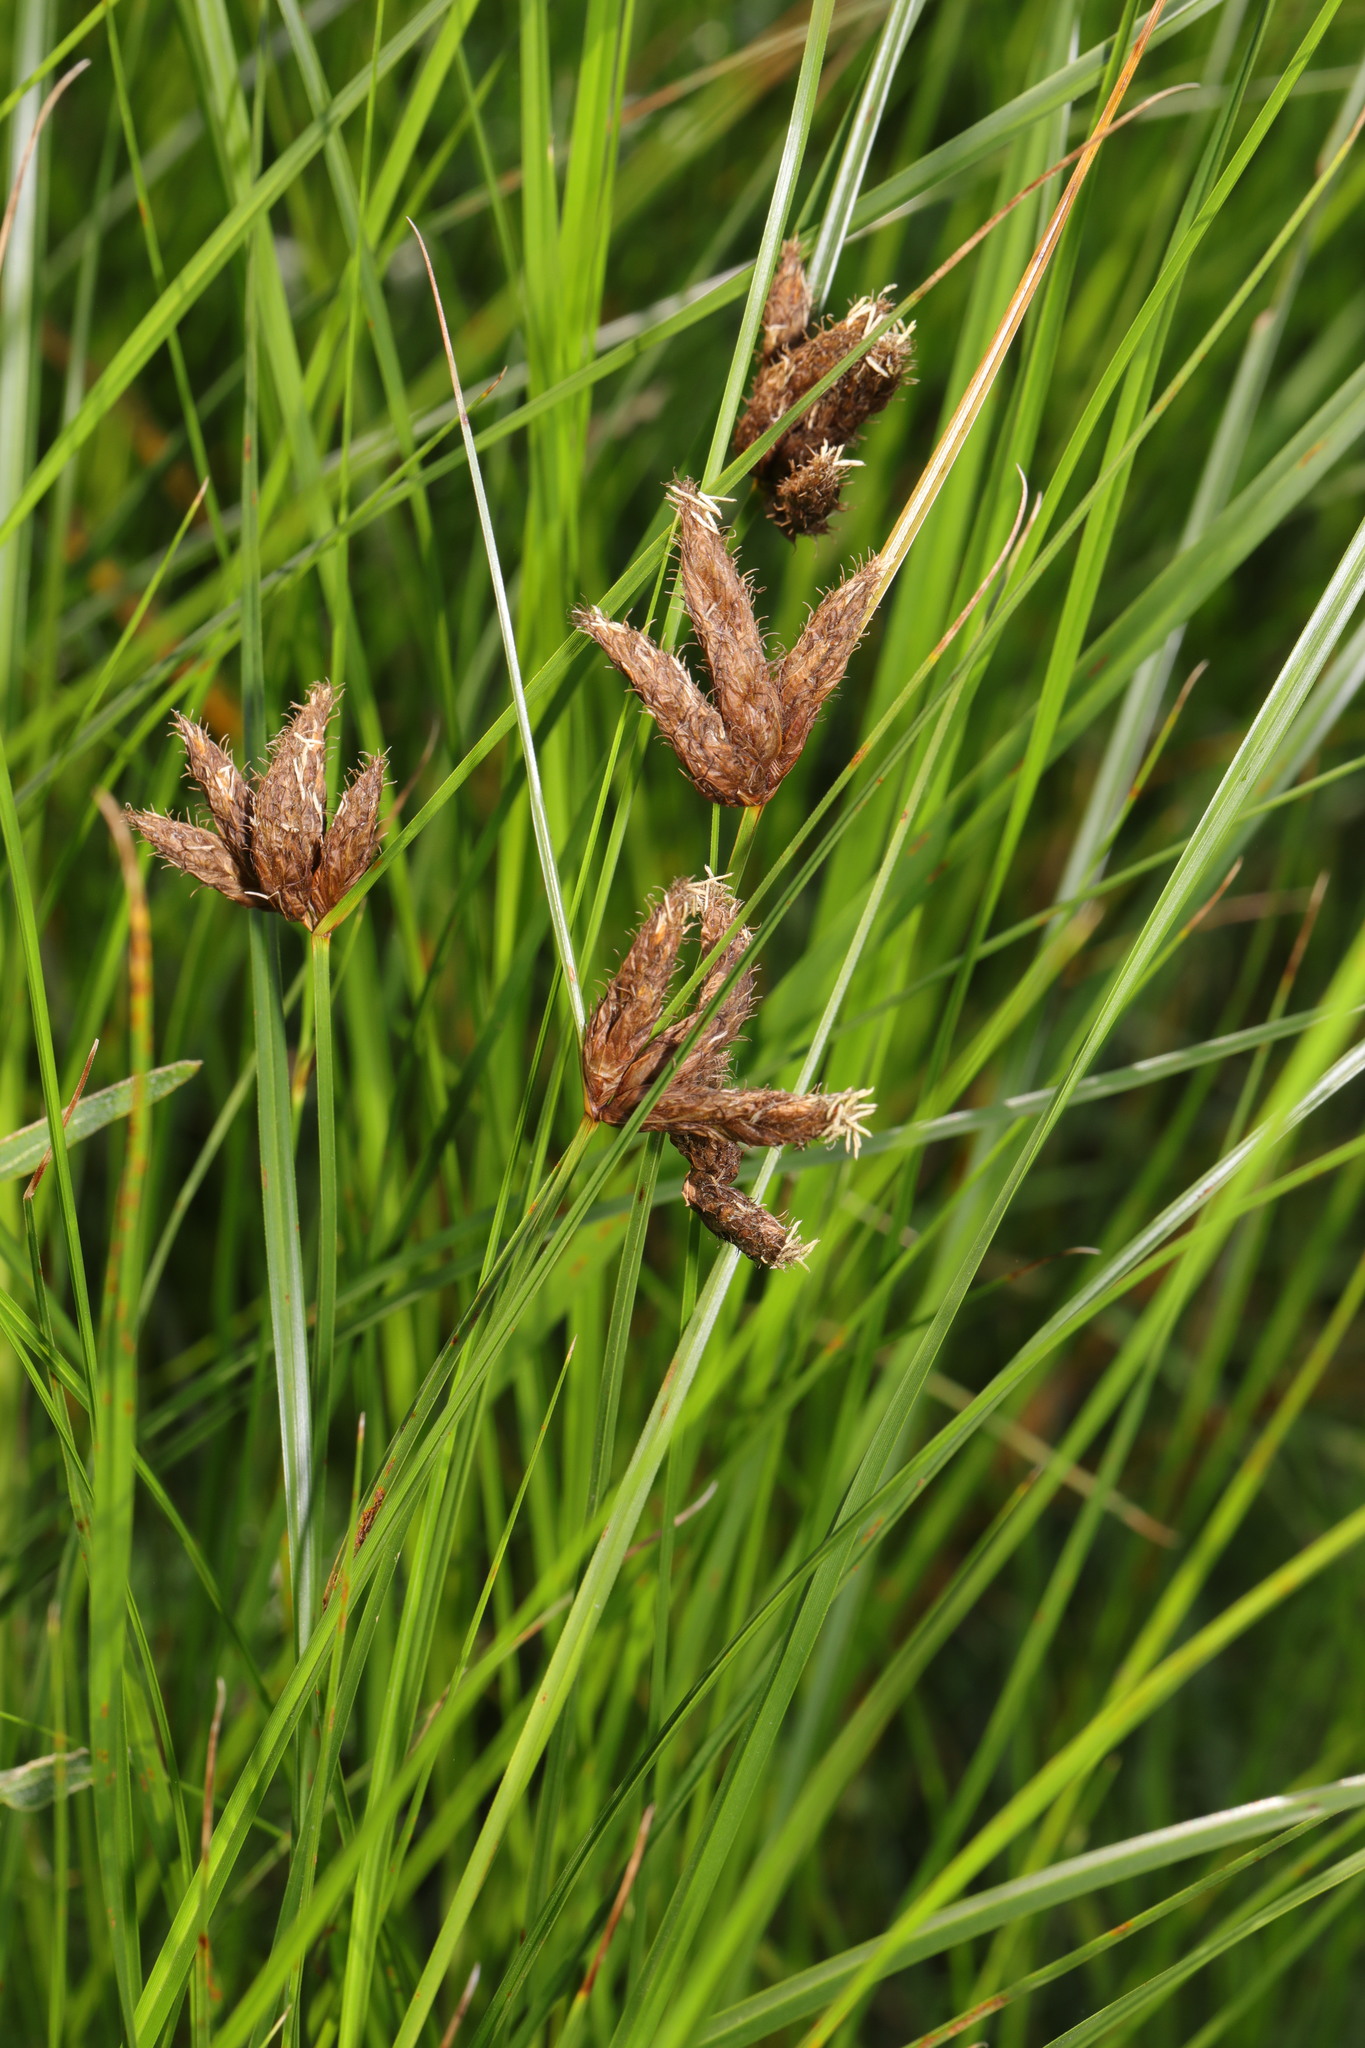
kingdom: Plantae
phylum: Tracheophyta
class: Liliopsida
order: Poales
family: Cyperaceae
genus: Bolboschoenus
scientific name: Bolboschoenus maritimus
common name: Sea club-rush
